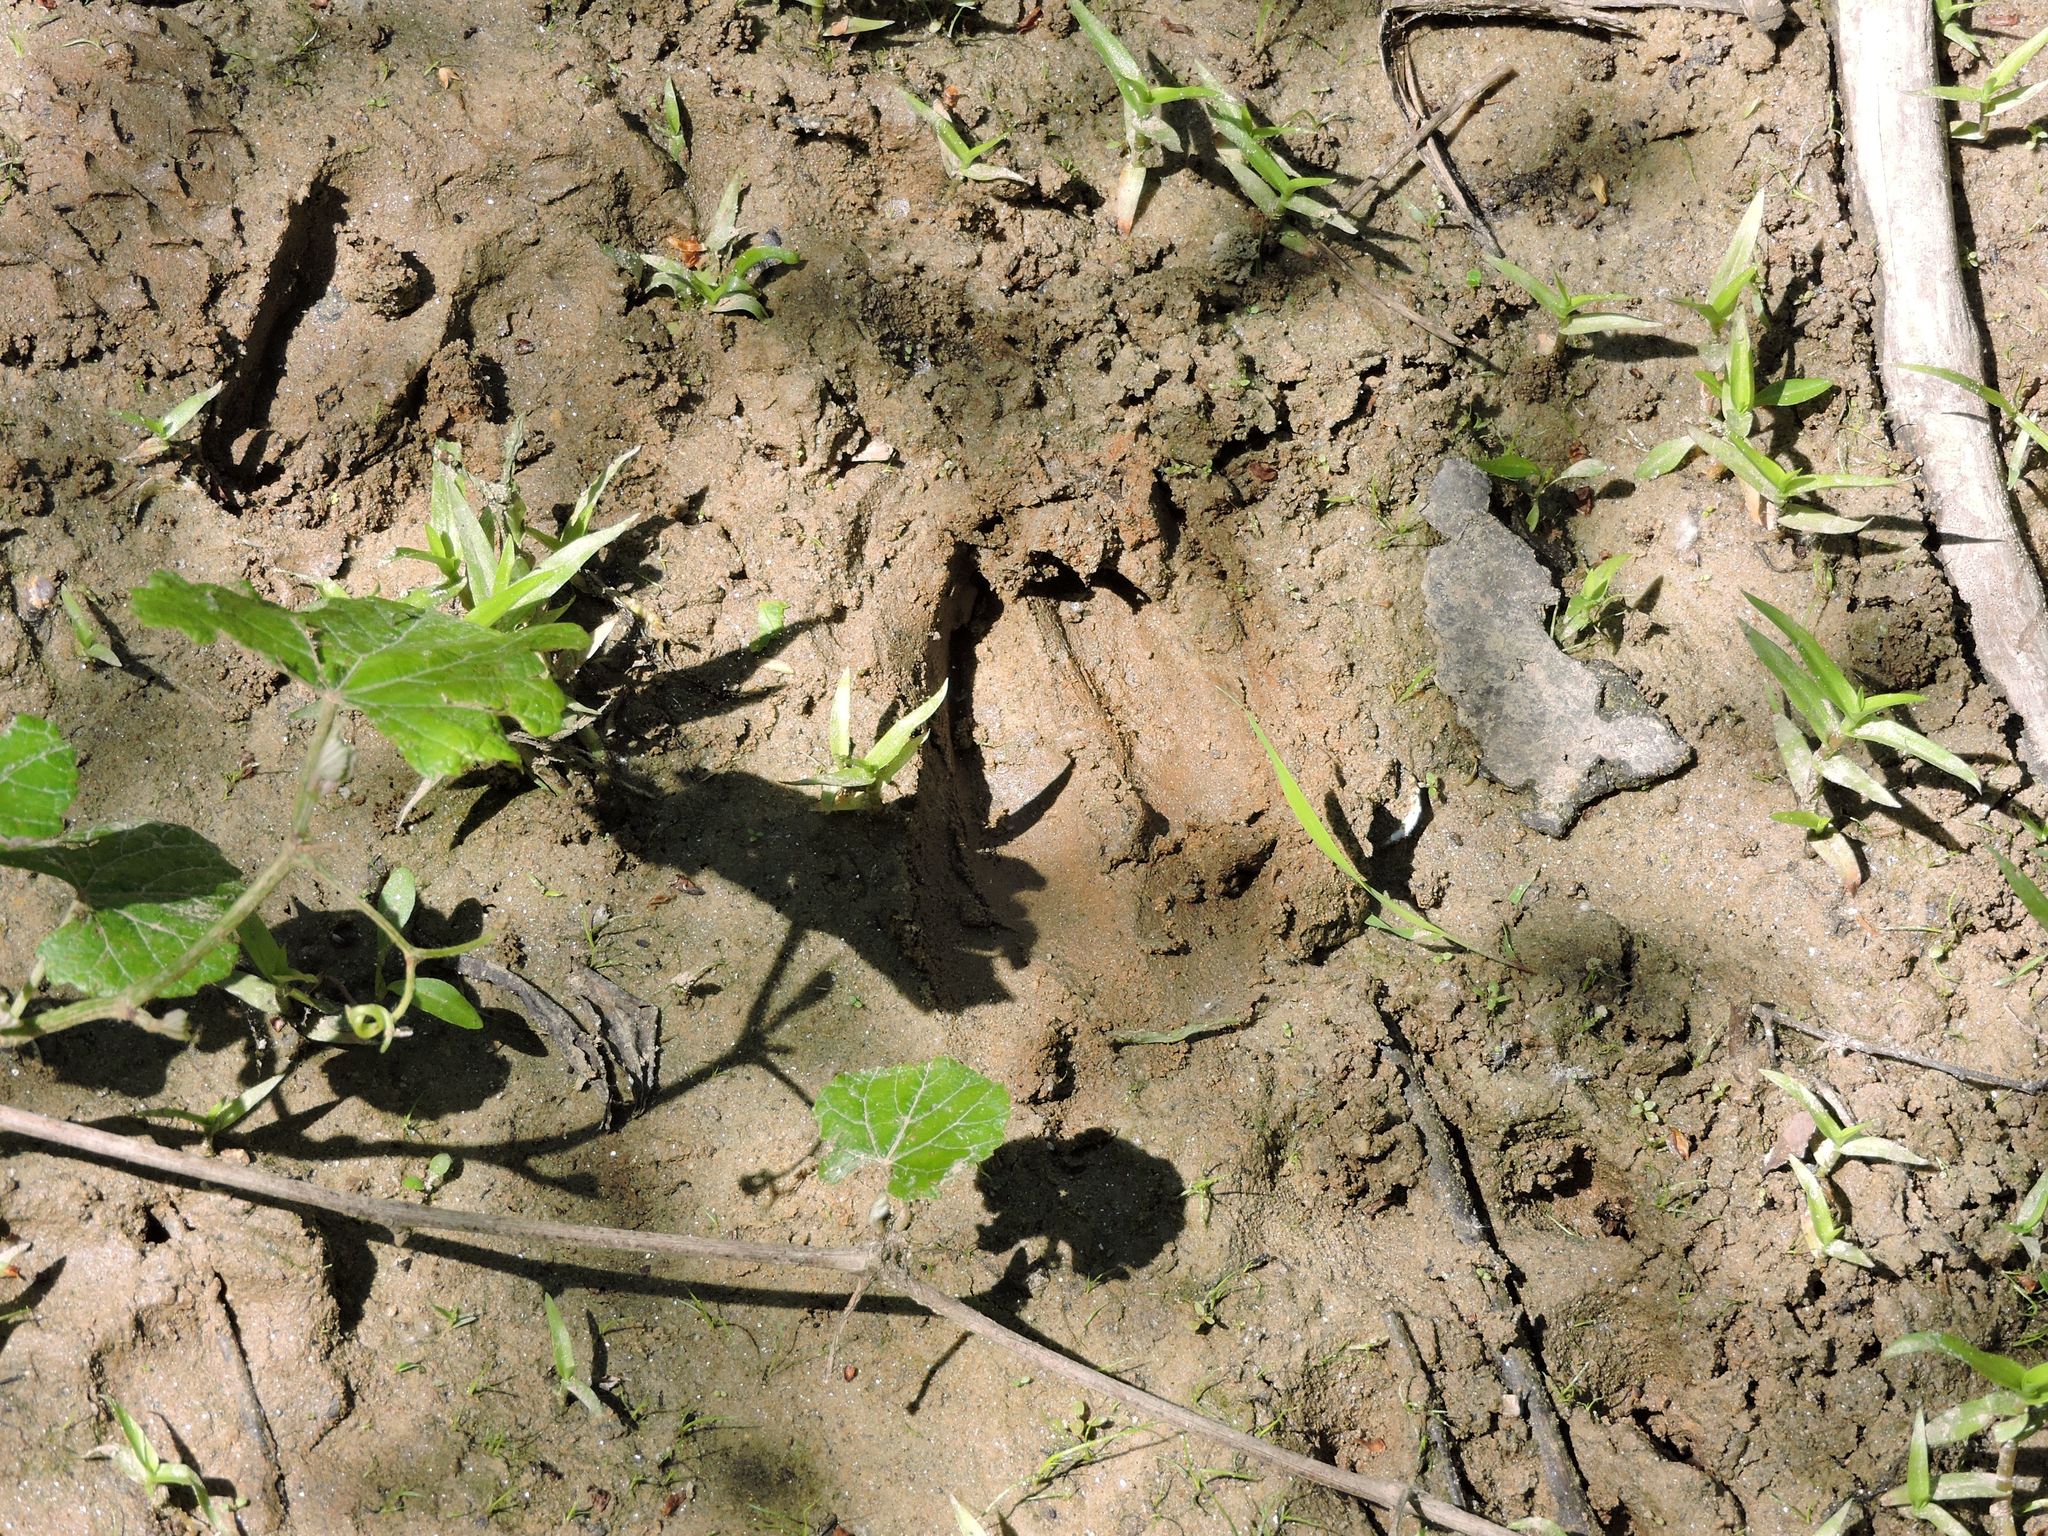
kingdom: Animalia
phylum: Chordata
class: Mammalia
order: Artiodactyla
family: Cervidae
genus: Odocoileus
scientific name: Odocoileus virginianus
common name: White-tailed deer
